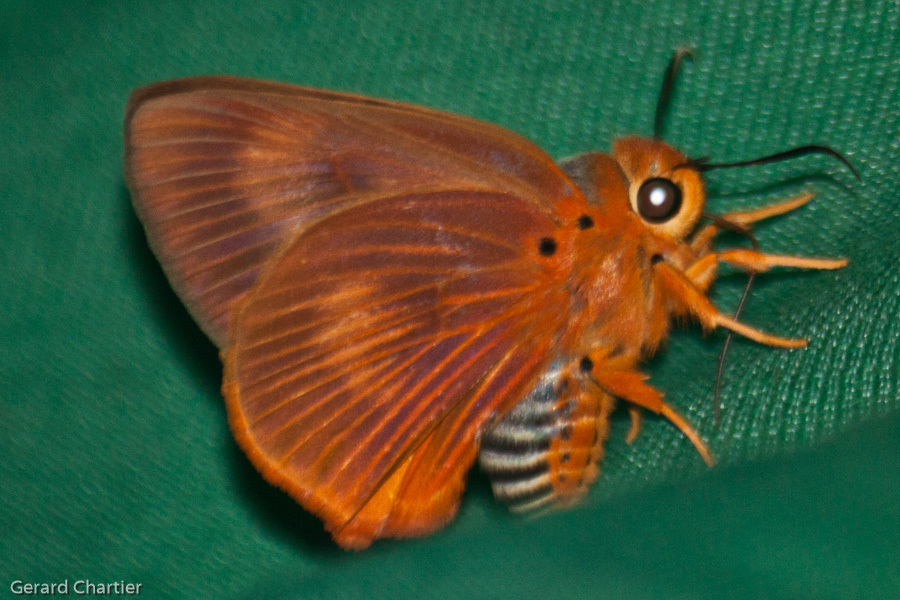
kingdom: Animalia
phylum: Arthropoda
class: Insecta
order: Lepidoptera
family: Hesperiidae
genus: Bibasis
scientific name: Bibasis harisa
